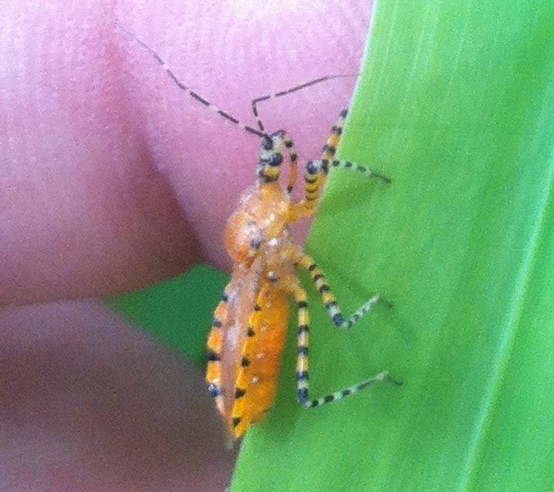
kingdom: Animalia
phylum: Arthropoda
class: Insecta
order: Hemiptera
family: Reduviidae
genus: Pselliopus
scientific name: Pselliopus barberi
